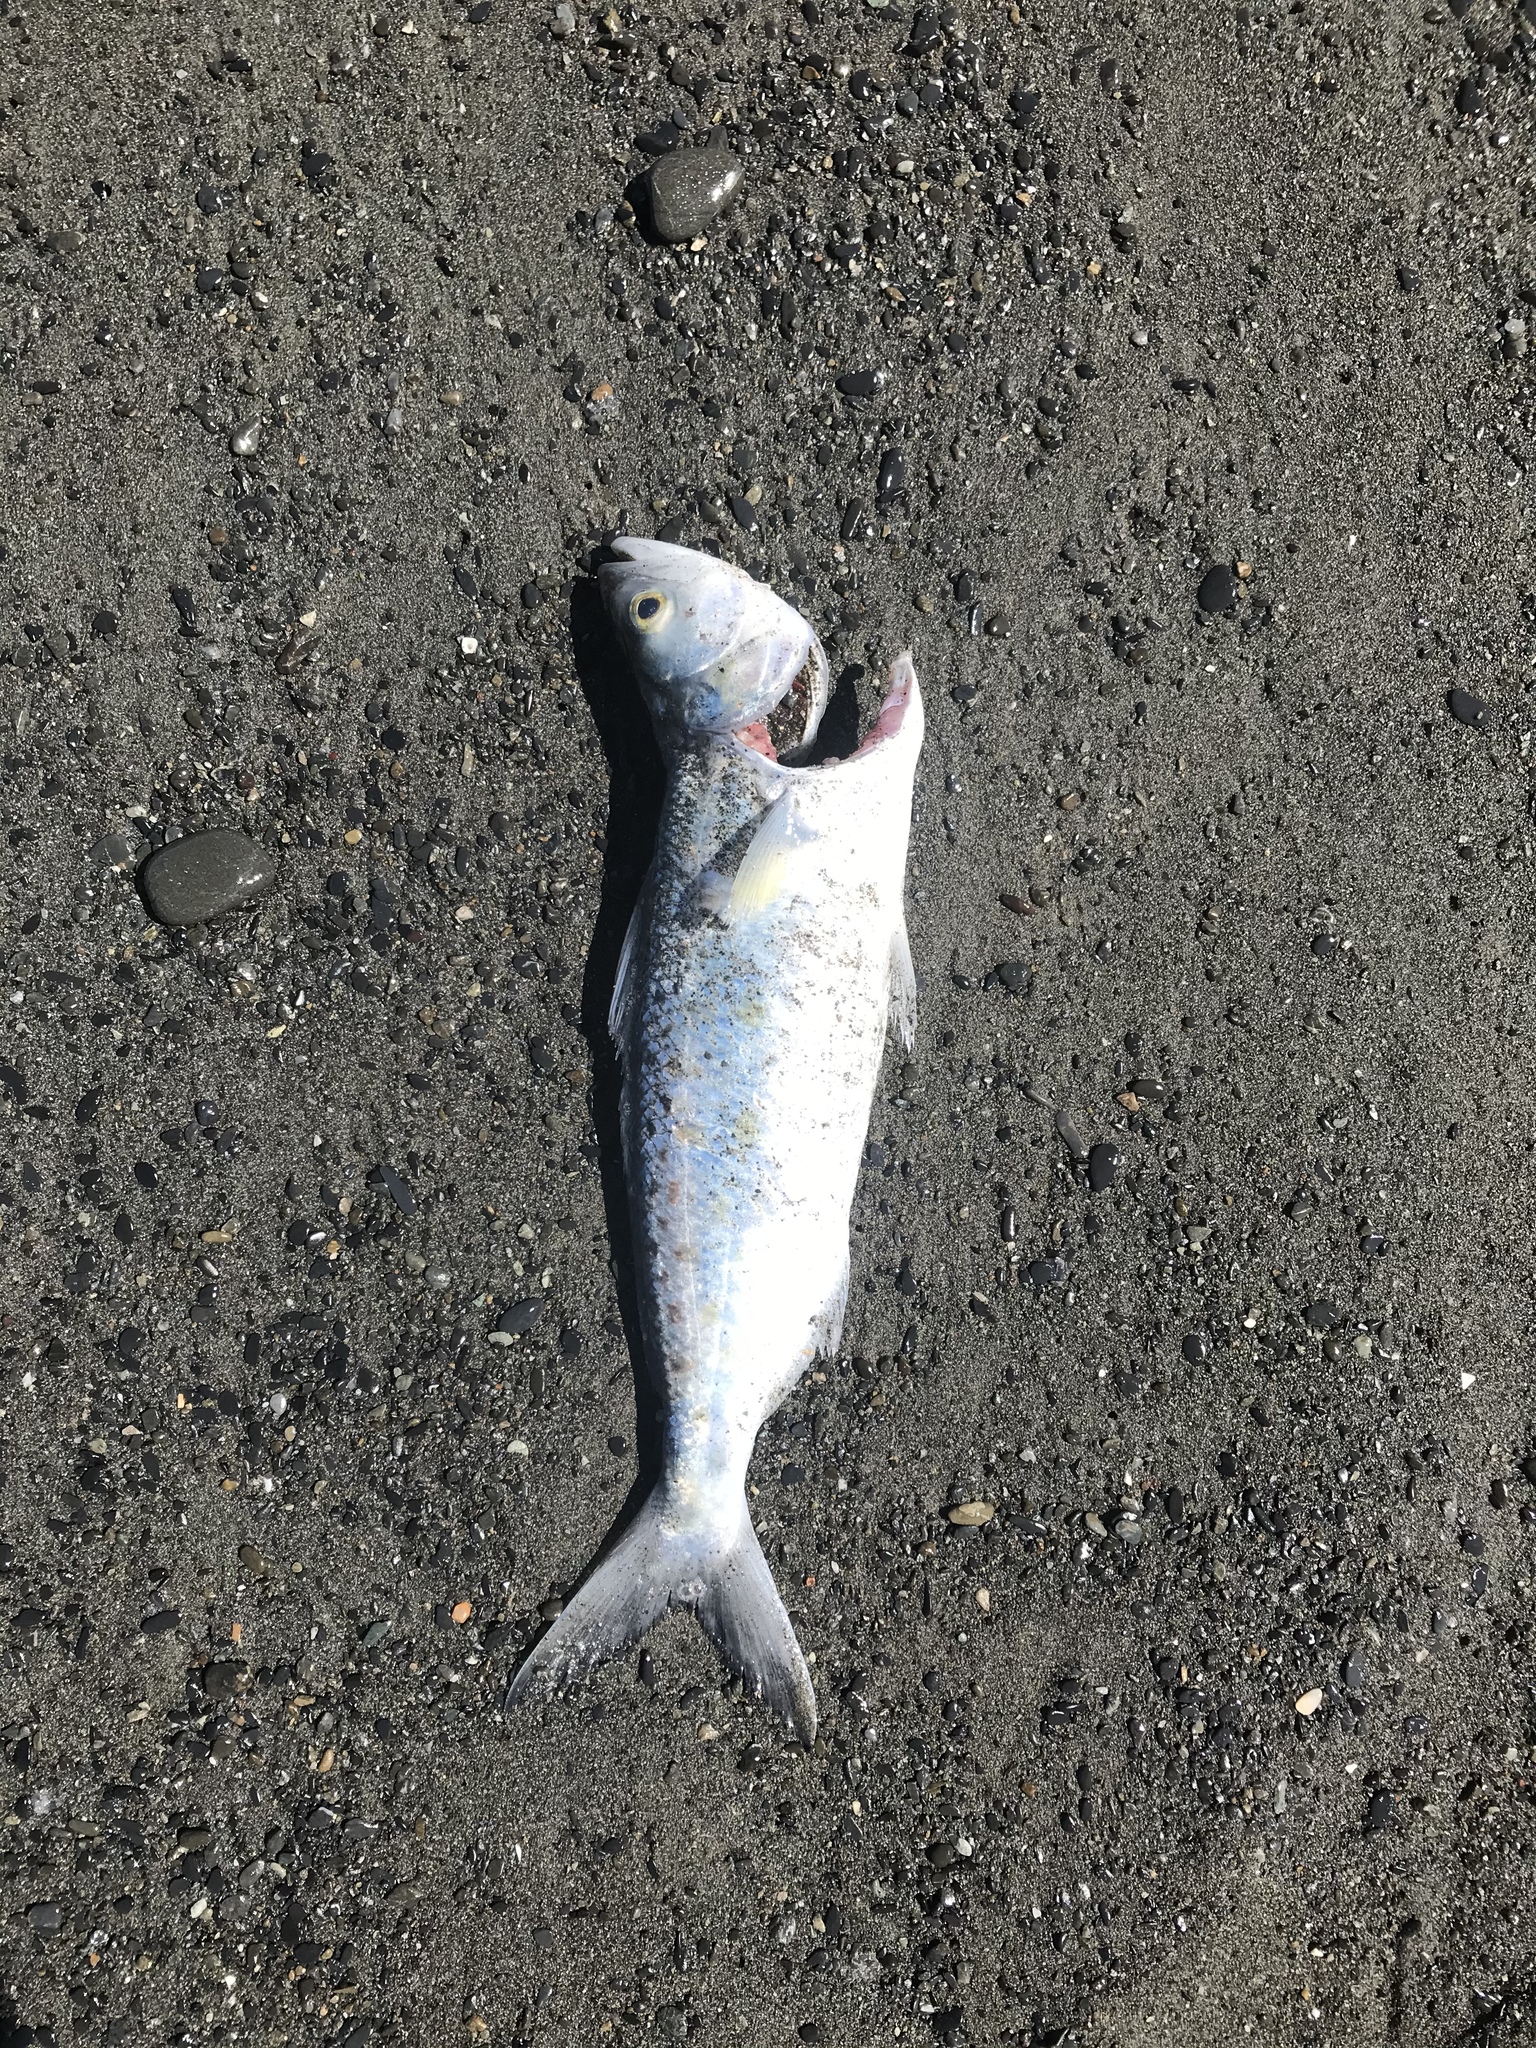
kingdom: Animalia
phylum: Chordata
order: Perciformes
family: Arripidae
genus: Arripis
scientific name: Arripis trutta
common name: Kahawai
